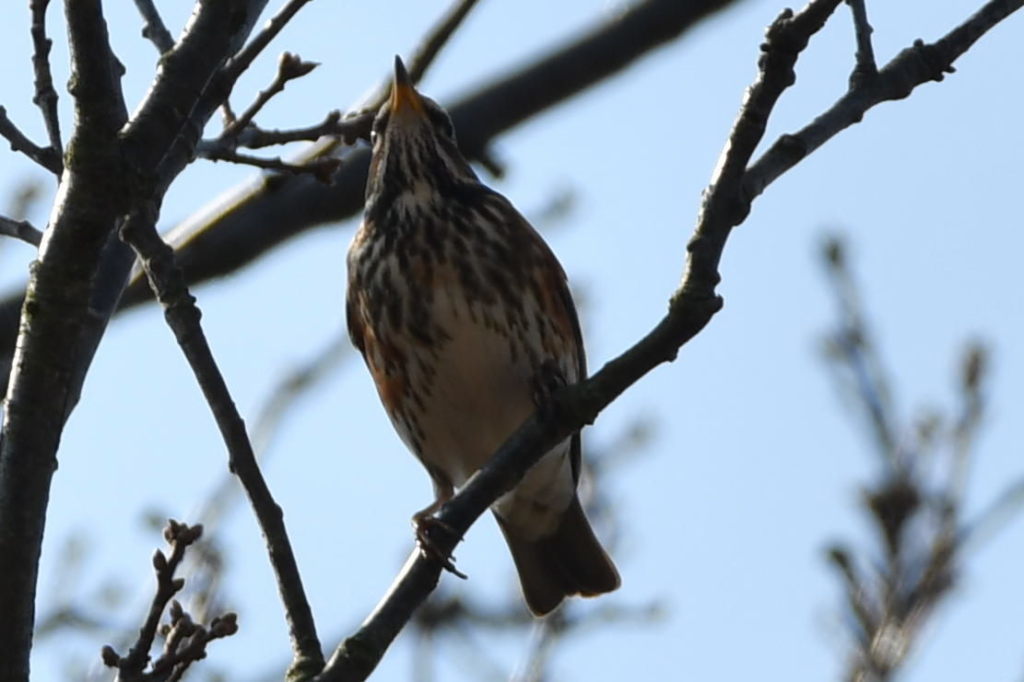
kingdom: Animalia
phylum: Chordata
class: Aves
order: Passeriformes
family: Turdidae
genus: Turdus
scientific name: Turdus iliacus
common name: Redwing
